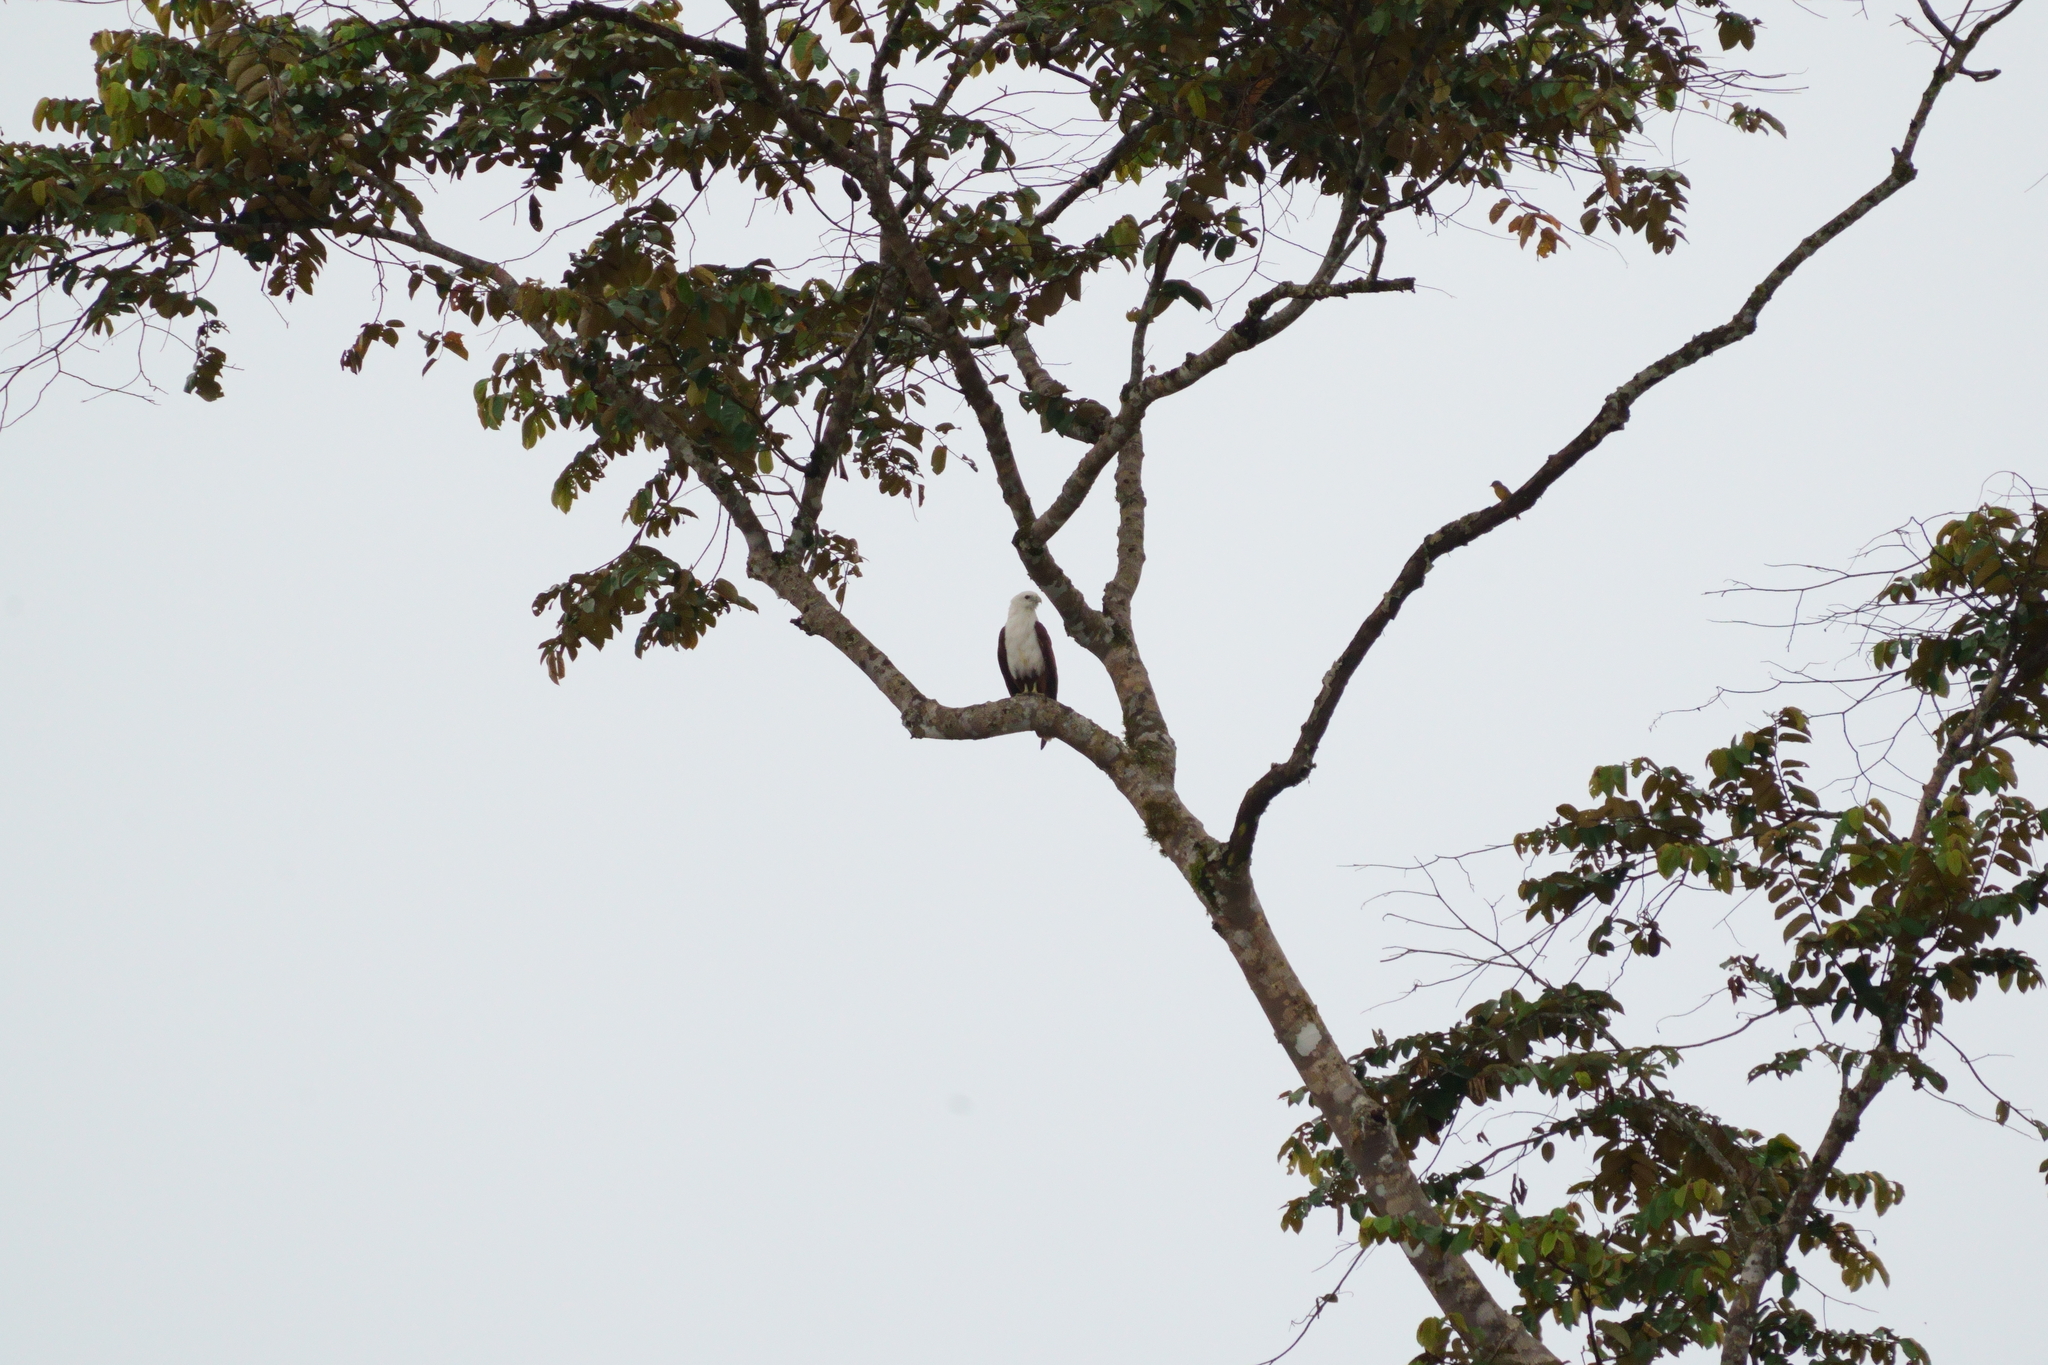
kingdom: Animalia
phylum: Chordata
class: Aves
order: Accipitriformes
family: Accipitridae
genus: Haliastur
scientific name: Haliastur indus
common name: Brahminy kite
